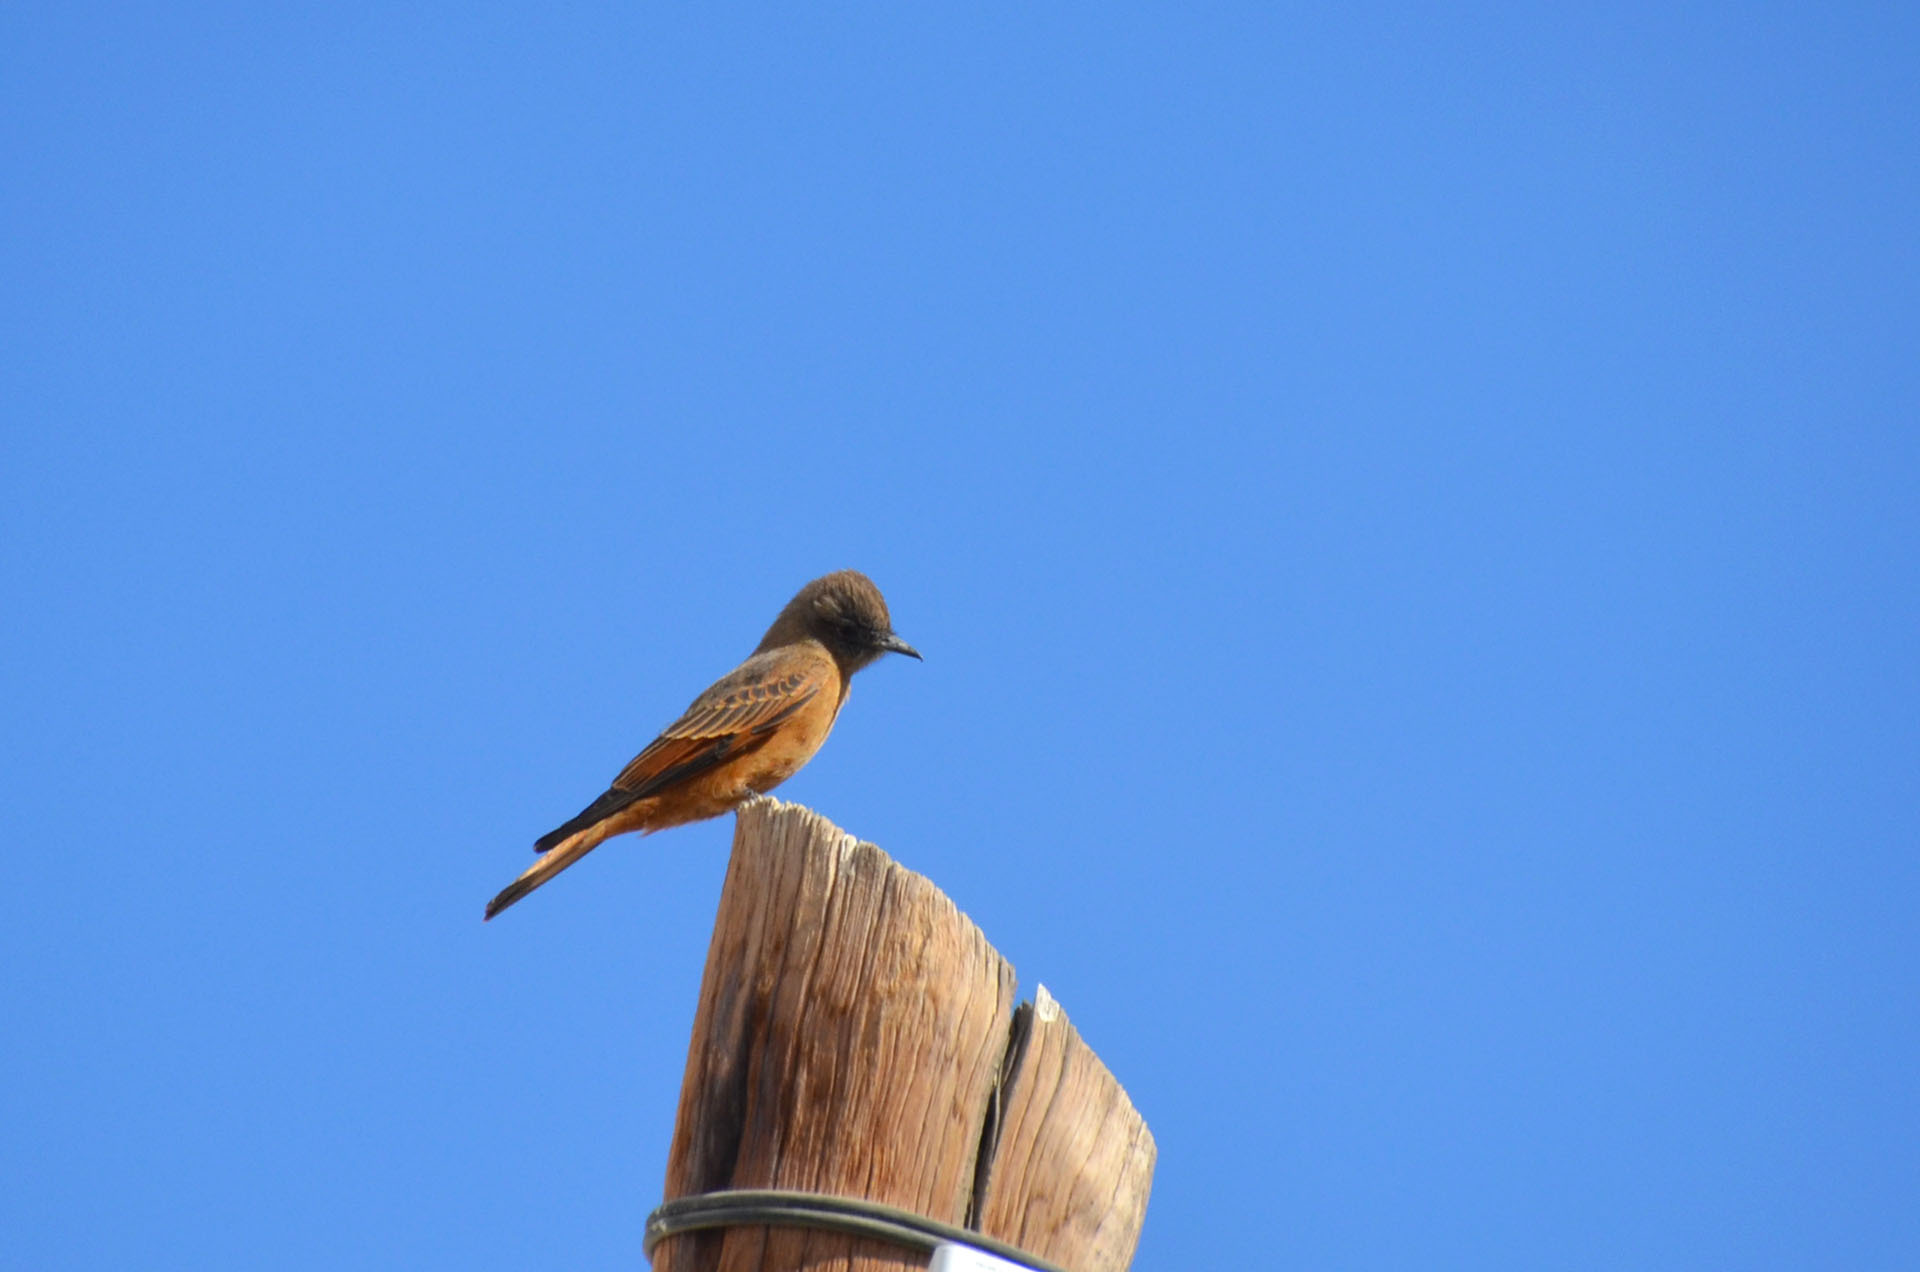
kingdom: Animalia
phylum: Chordata
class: Aves
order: Passeriformes
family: Tyrannidae
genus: Hirundinea
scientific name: Hirundinea ferruginea
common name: Cliff flycatcher
